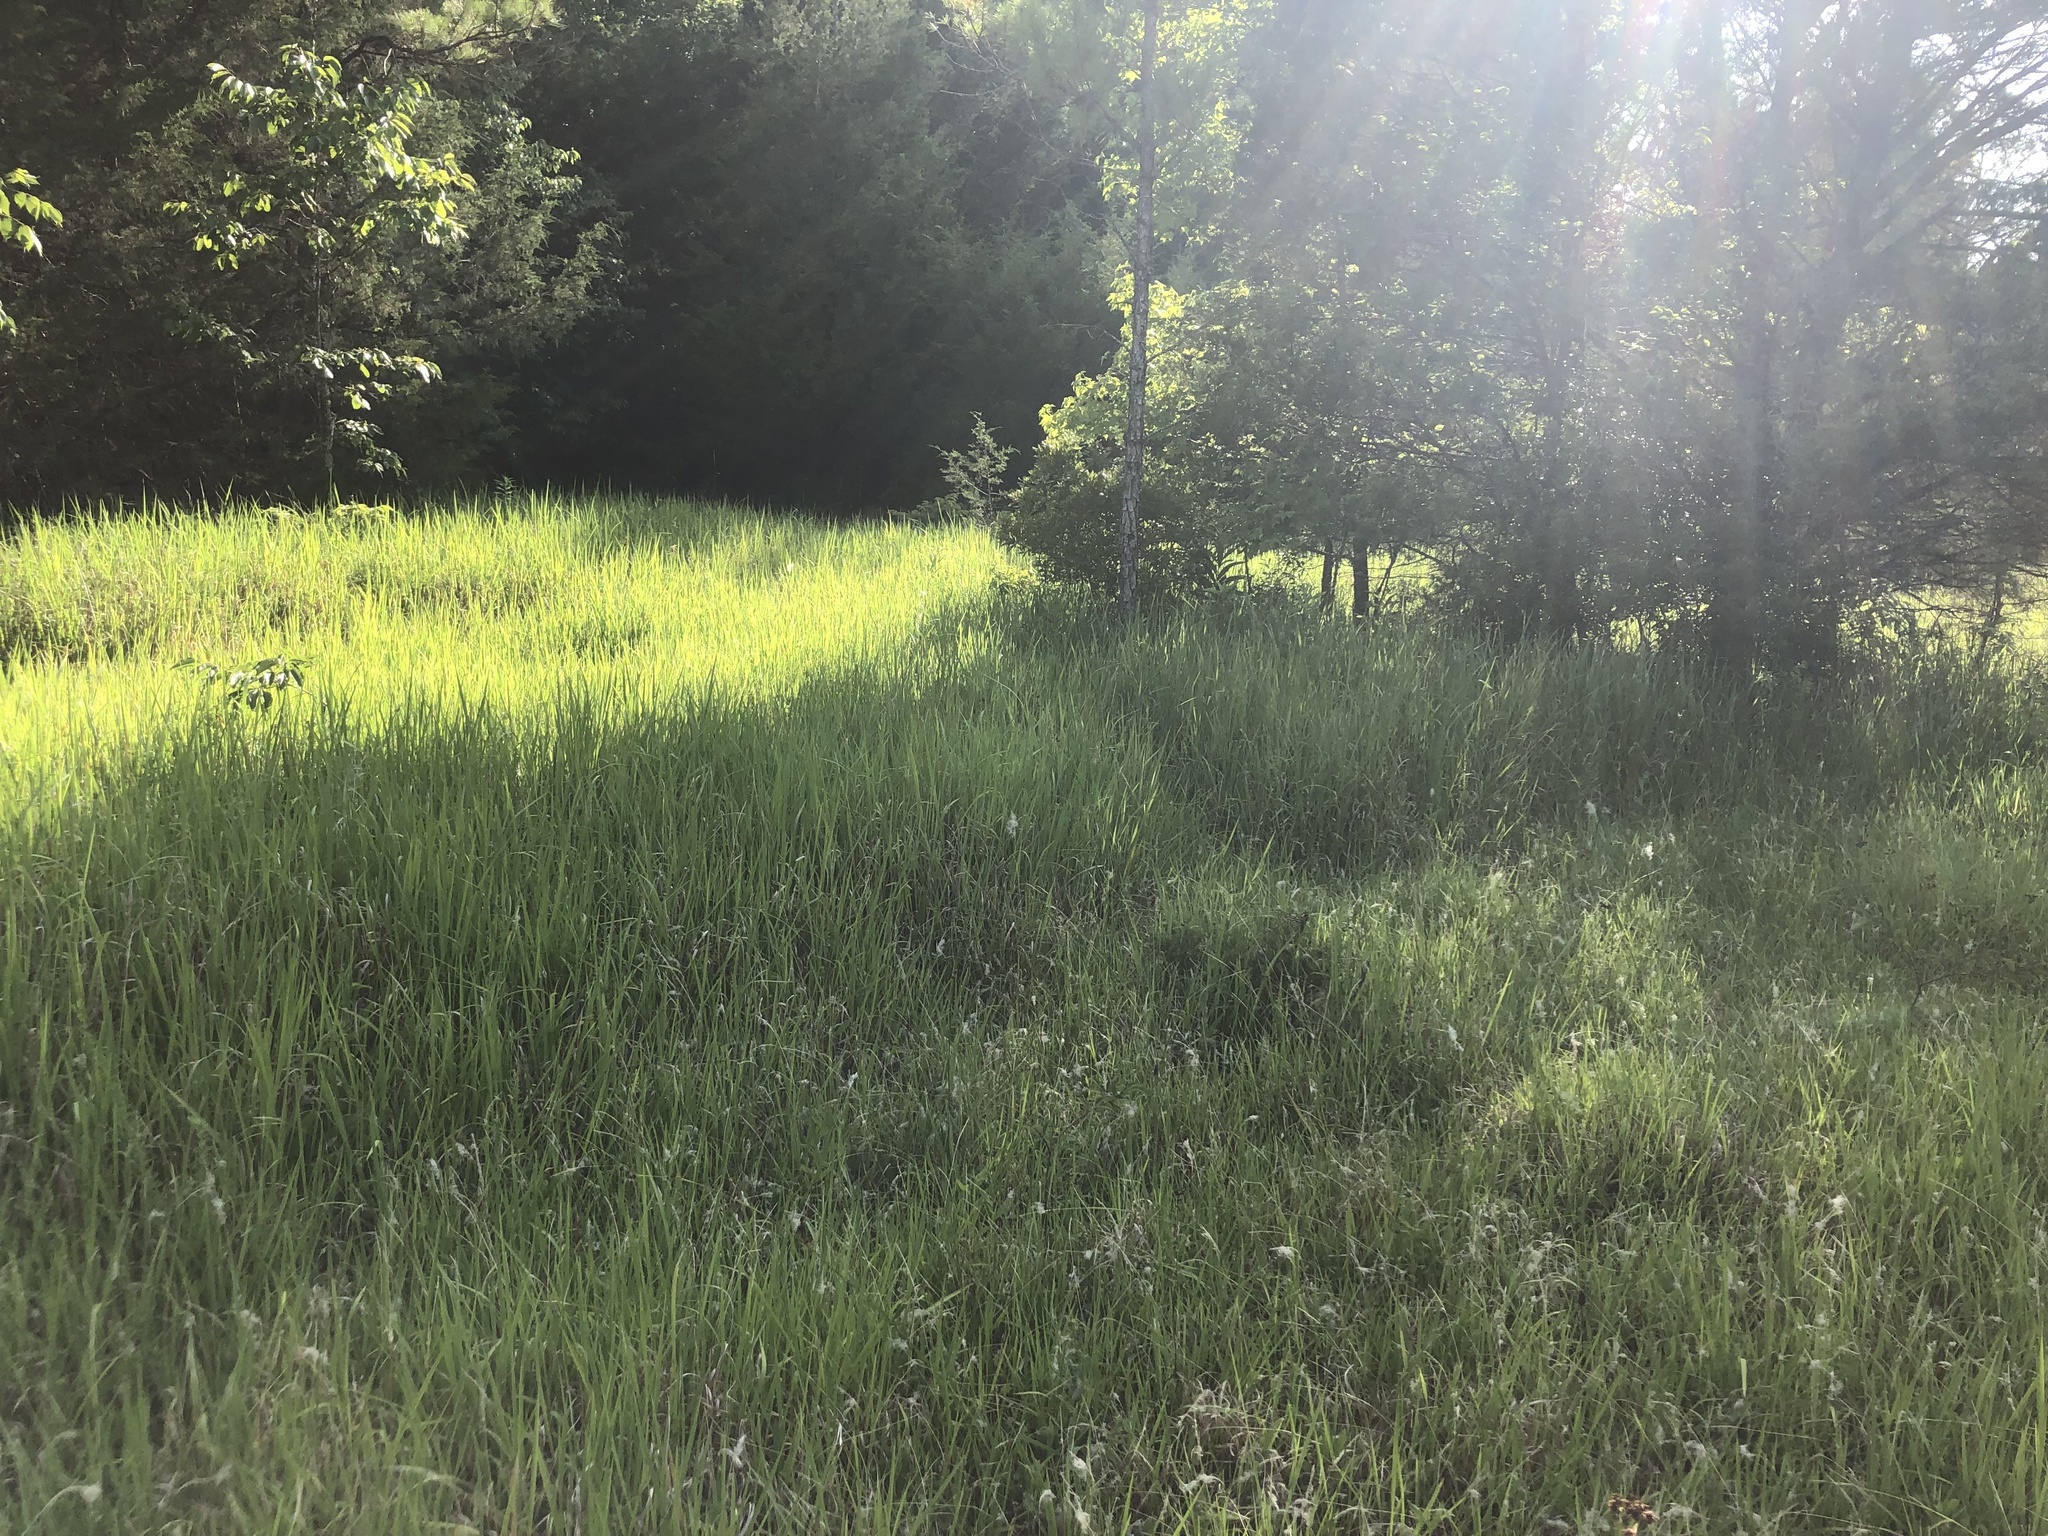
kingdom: Plantae
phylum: Tracheophyta
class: Liliopsida
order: Poales
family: Poaceae
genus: Imperata
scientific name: Imperata cylindrica
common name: Cogongrass
